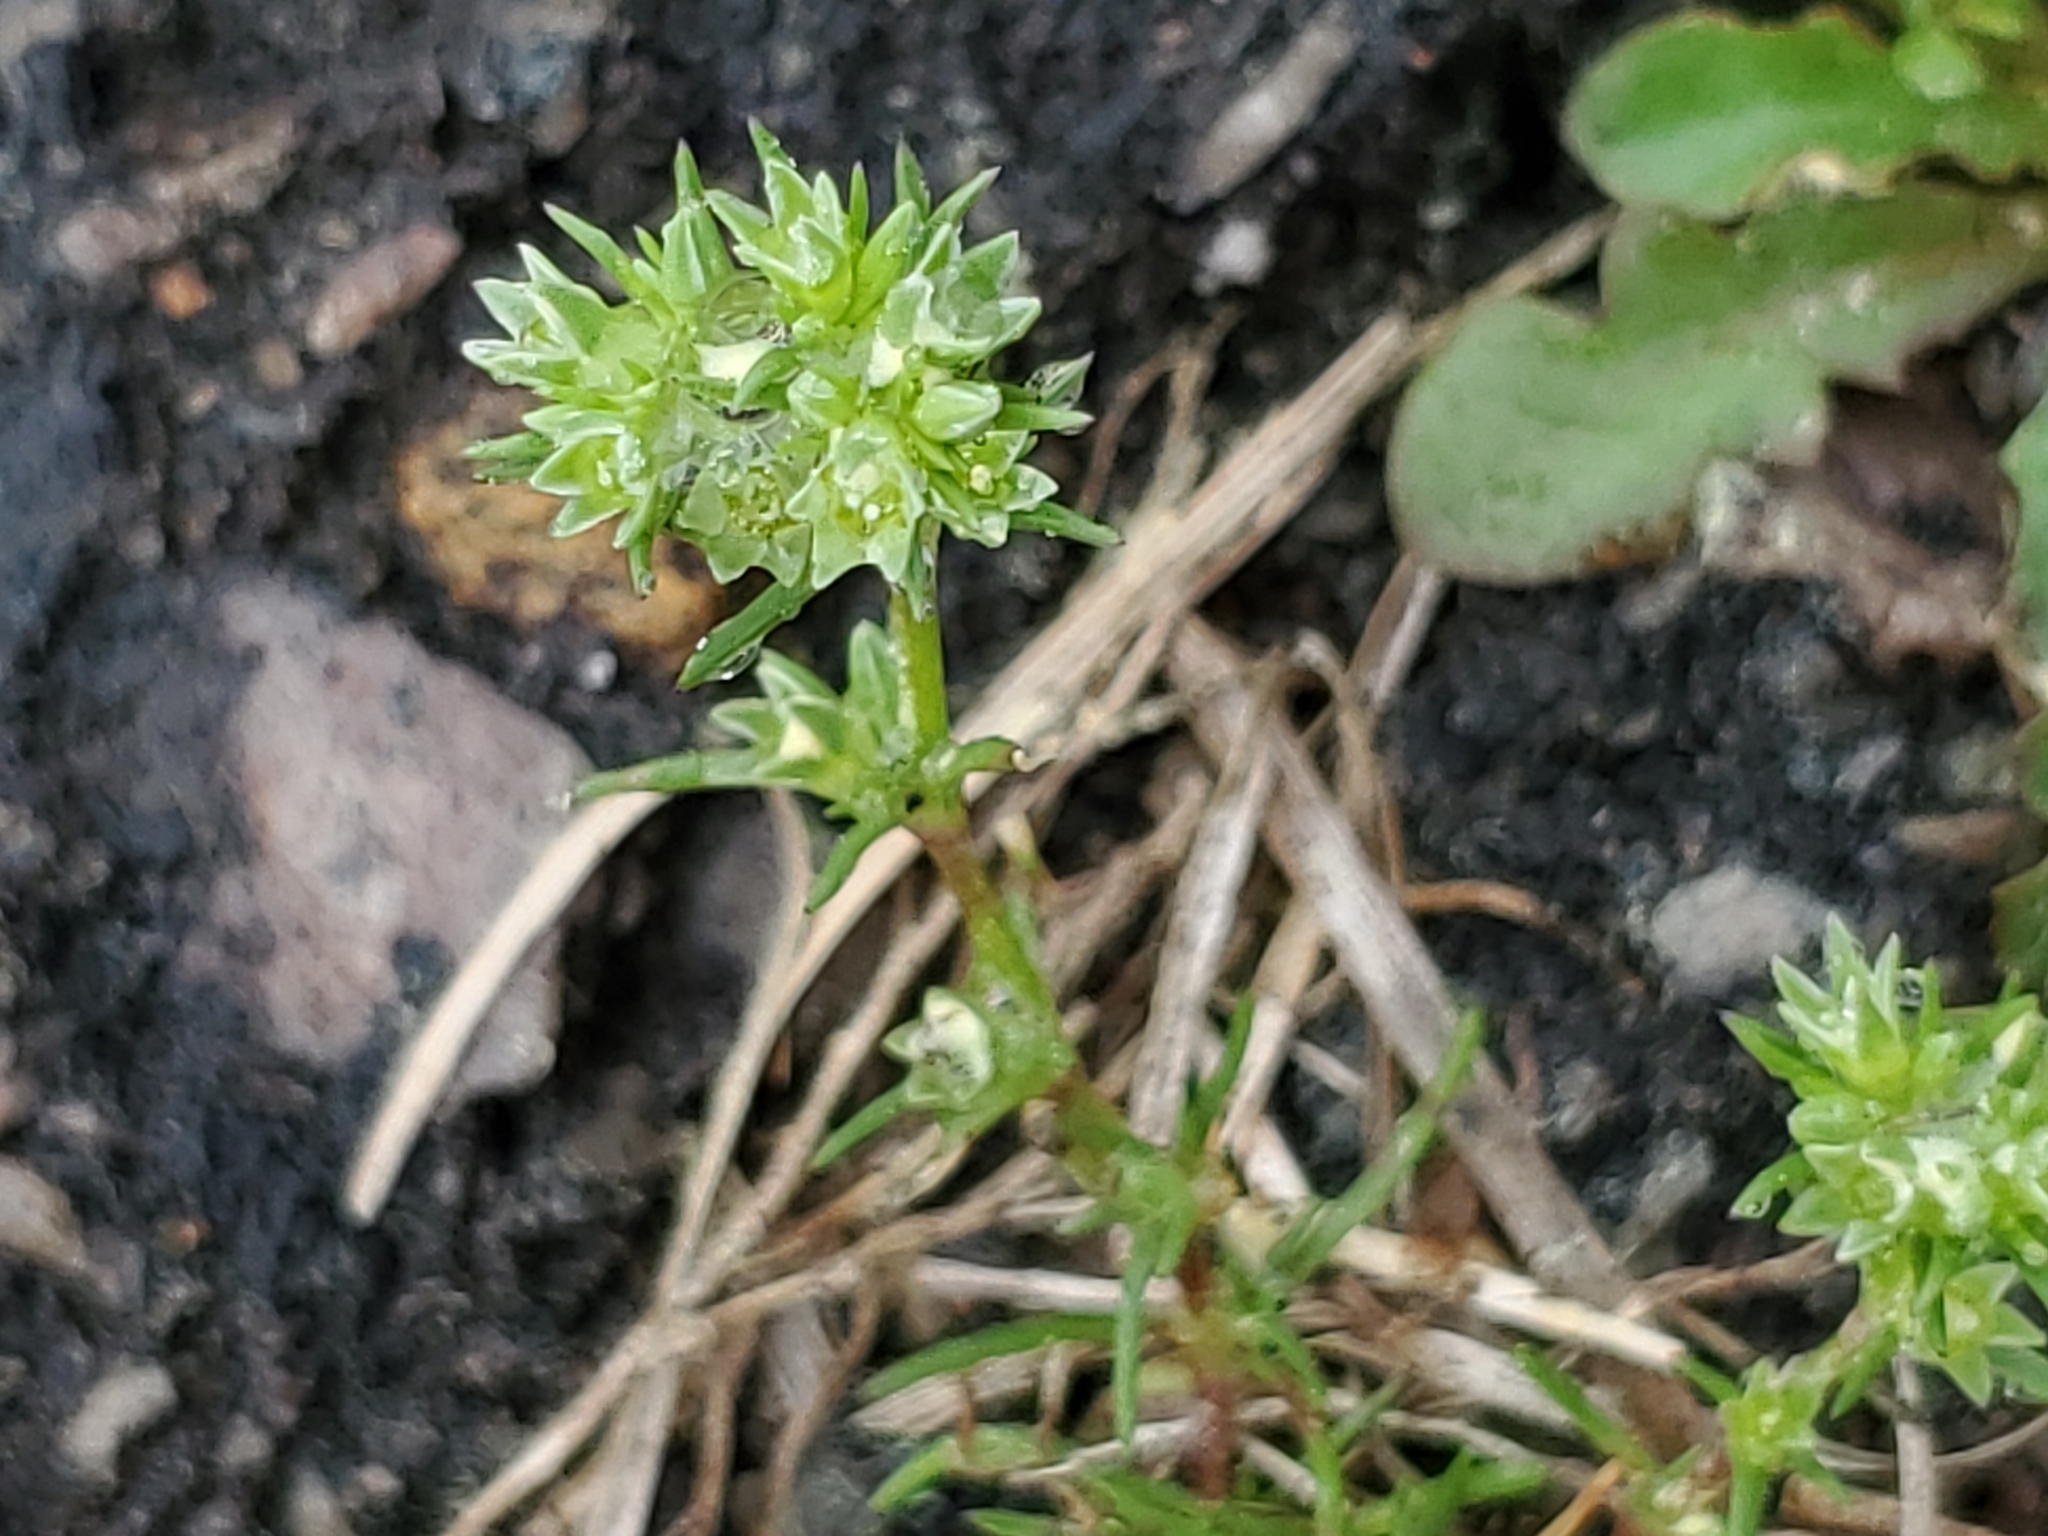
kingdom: Plantae
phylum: Tracheophyta
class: Magnoliopsida
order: Caryophyllales
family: Caryophyllaceae
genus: Scleranthus
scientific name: Scleranthus annuus
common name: Annual knawel
